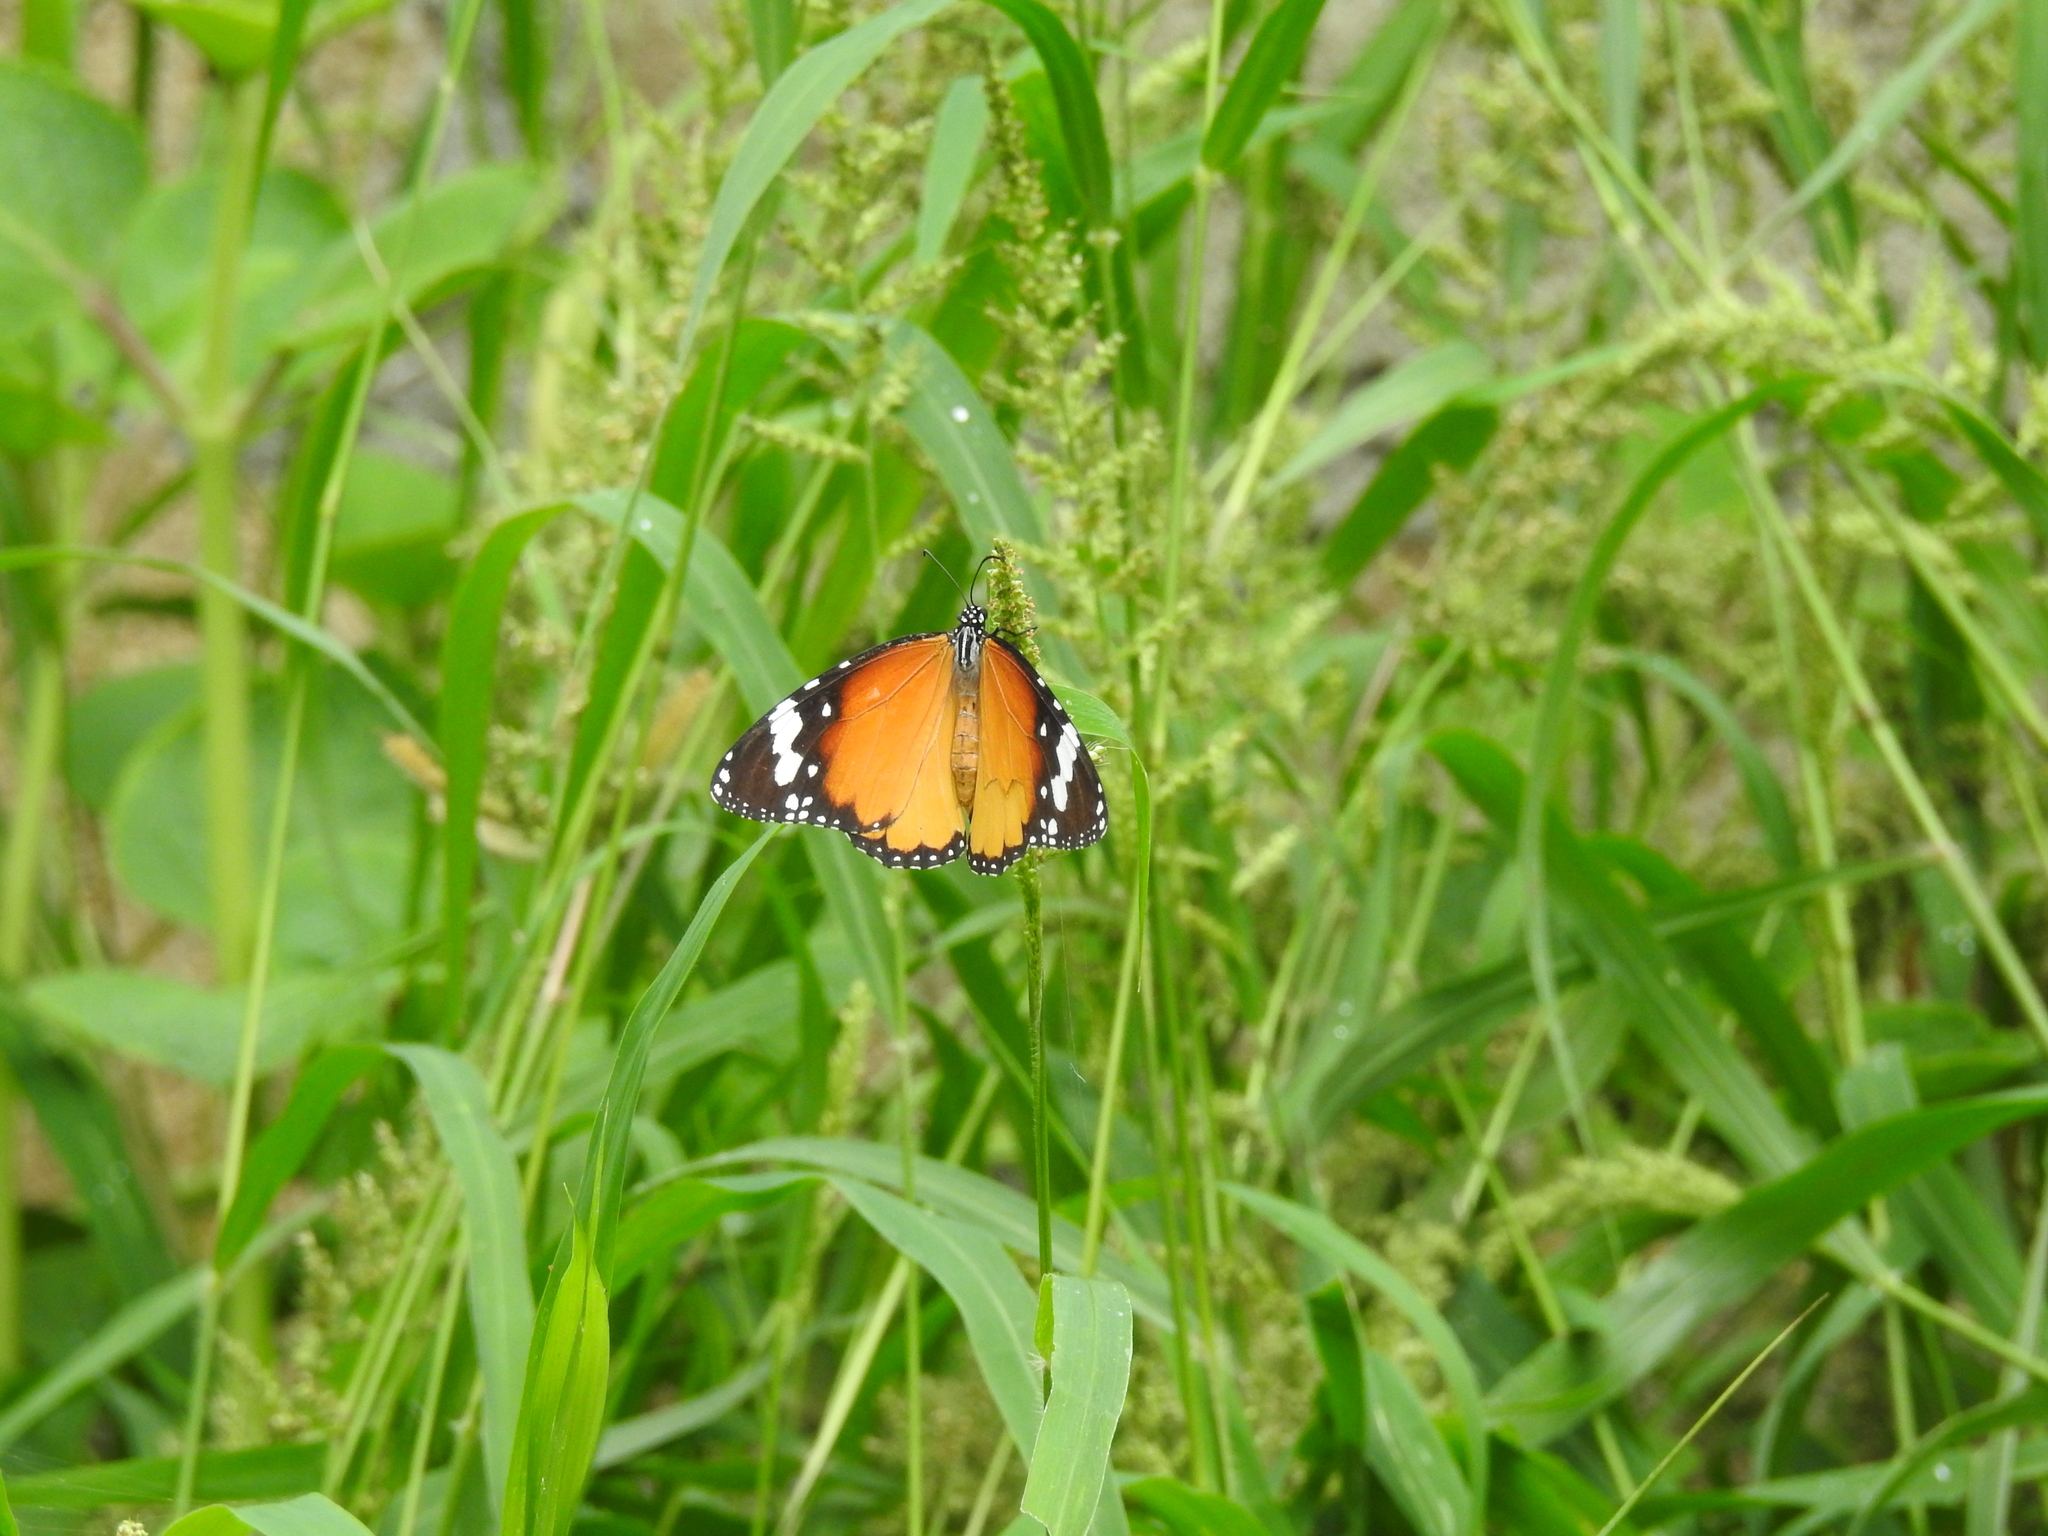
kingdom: Animalia
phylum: Arthropoda
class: Insecta
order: Lepidoptera
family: Nymphalidae
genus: Danaus
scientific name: Danaus chrysippus
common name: Plain tiger
